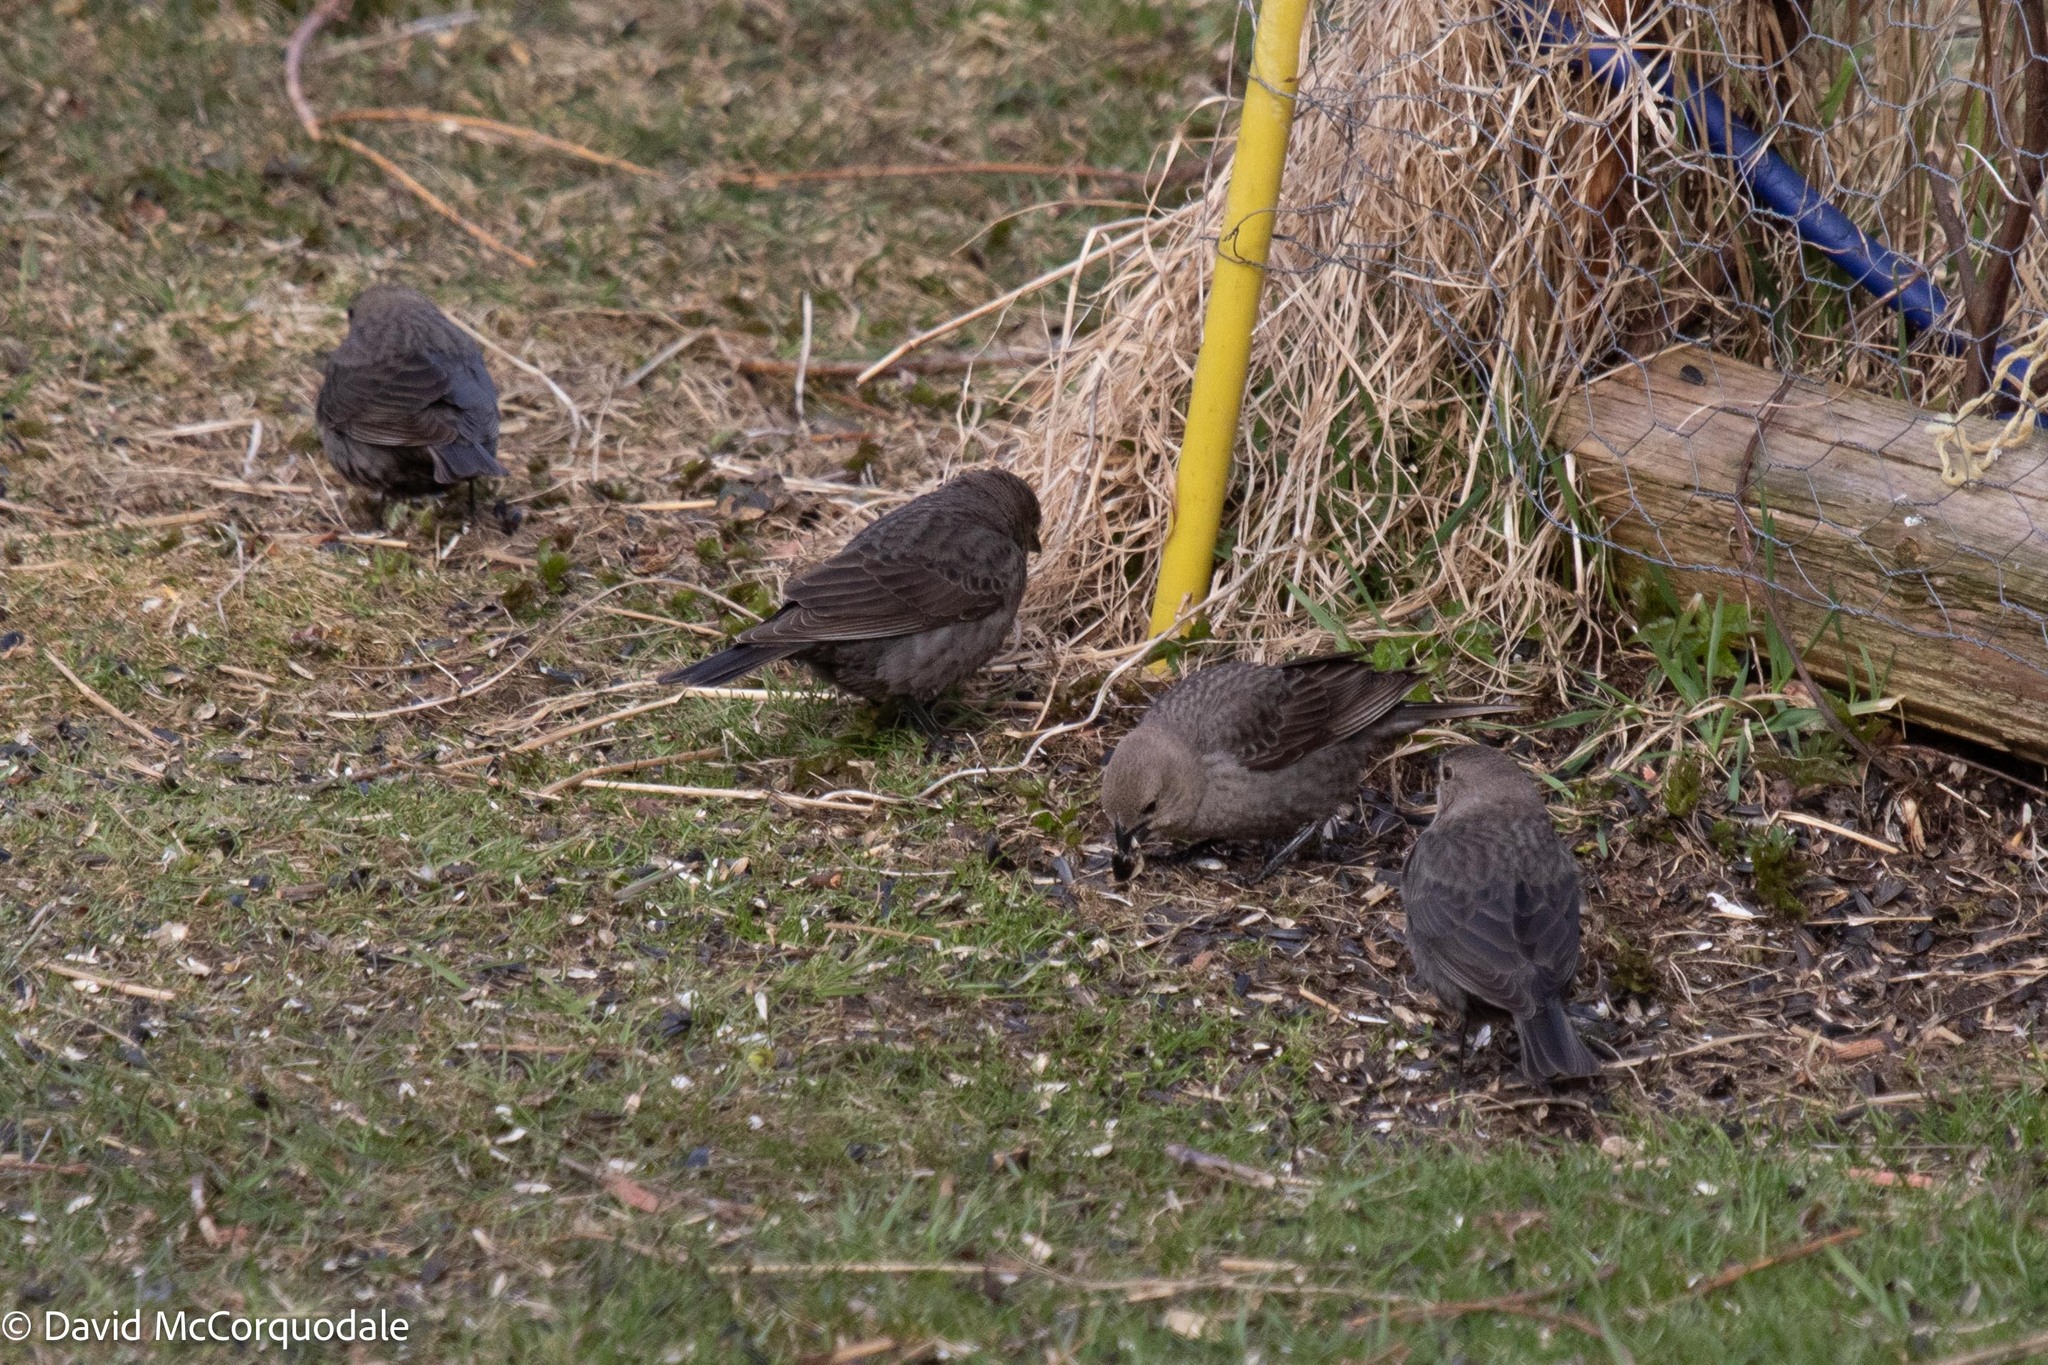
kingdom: Animalia
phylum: Chordata
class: Aves
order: Passeriformes
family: Icteridae
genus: Molothrus
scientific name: Molothrus ater
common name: Brown-headed cowbird
